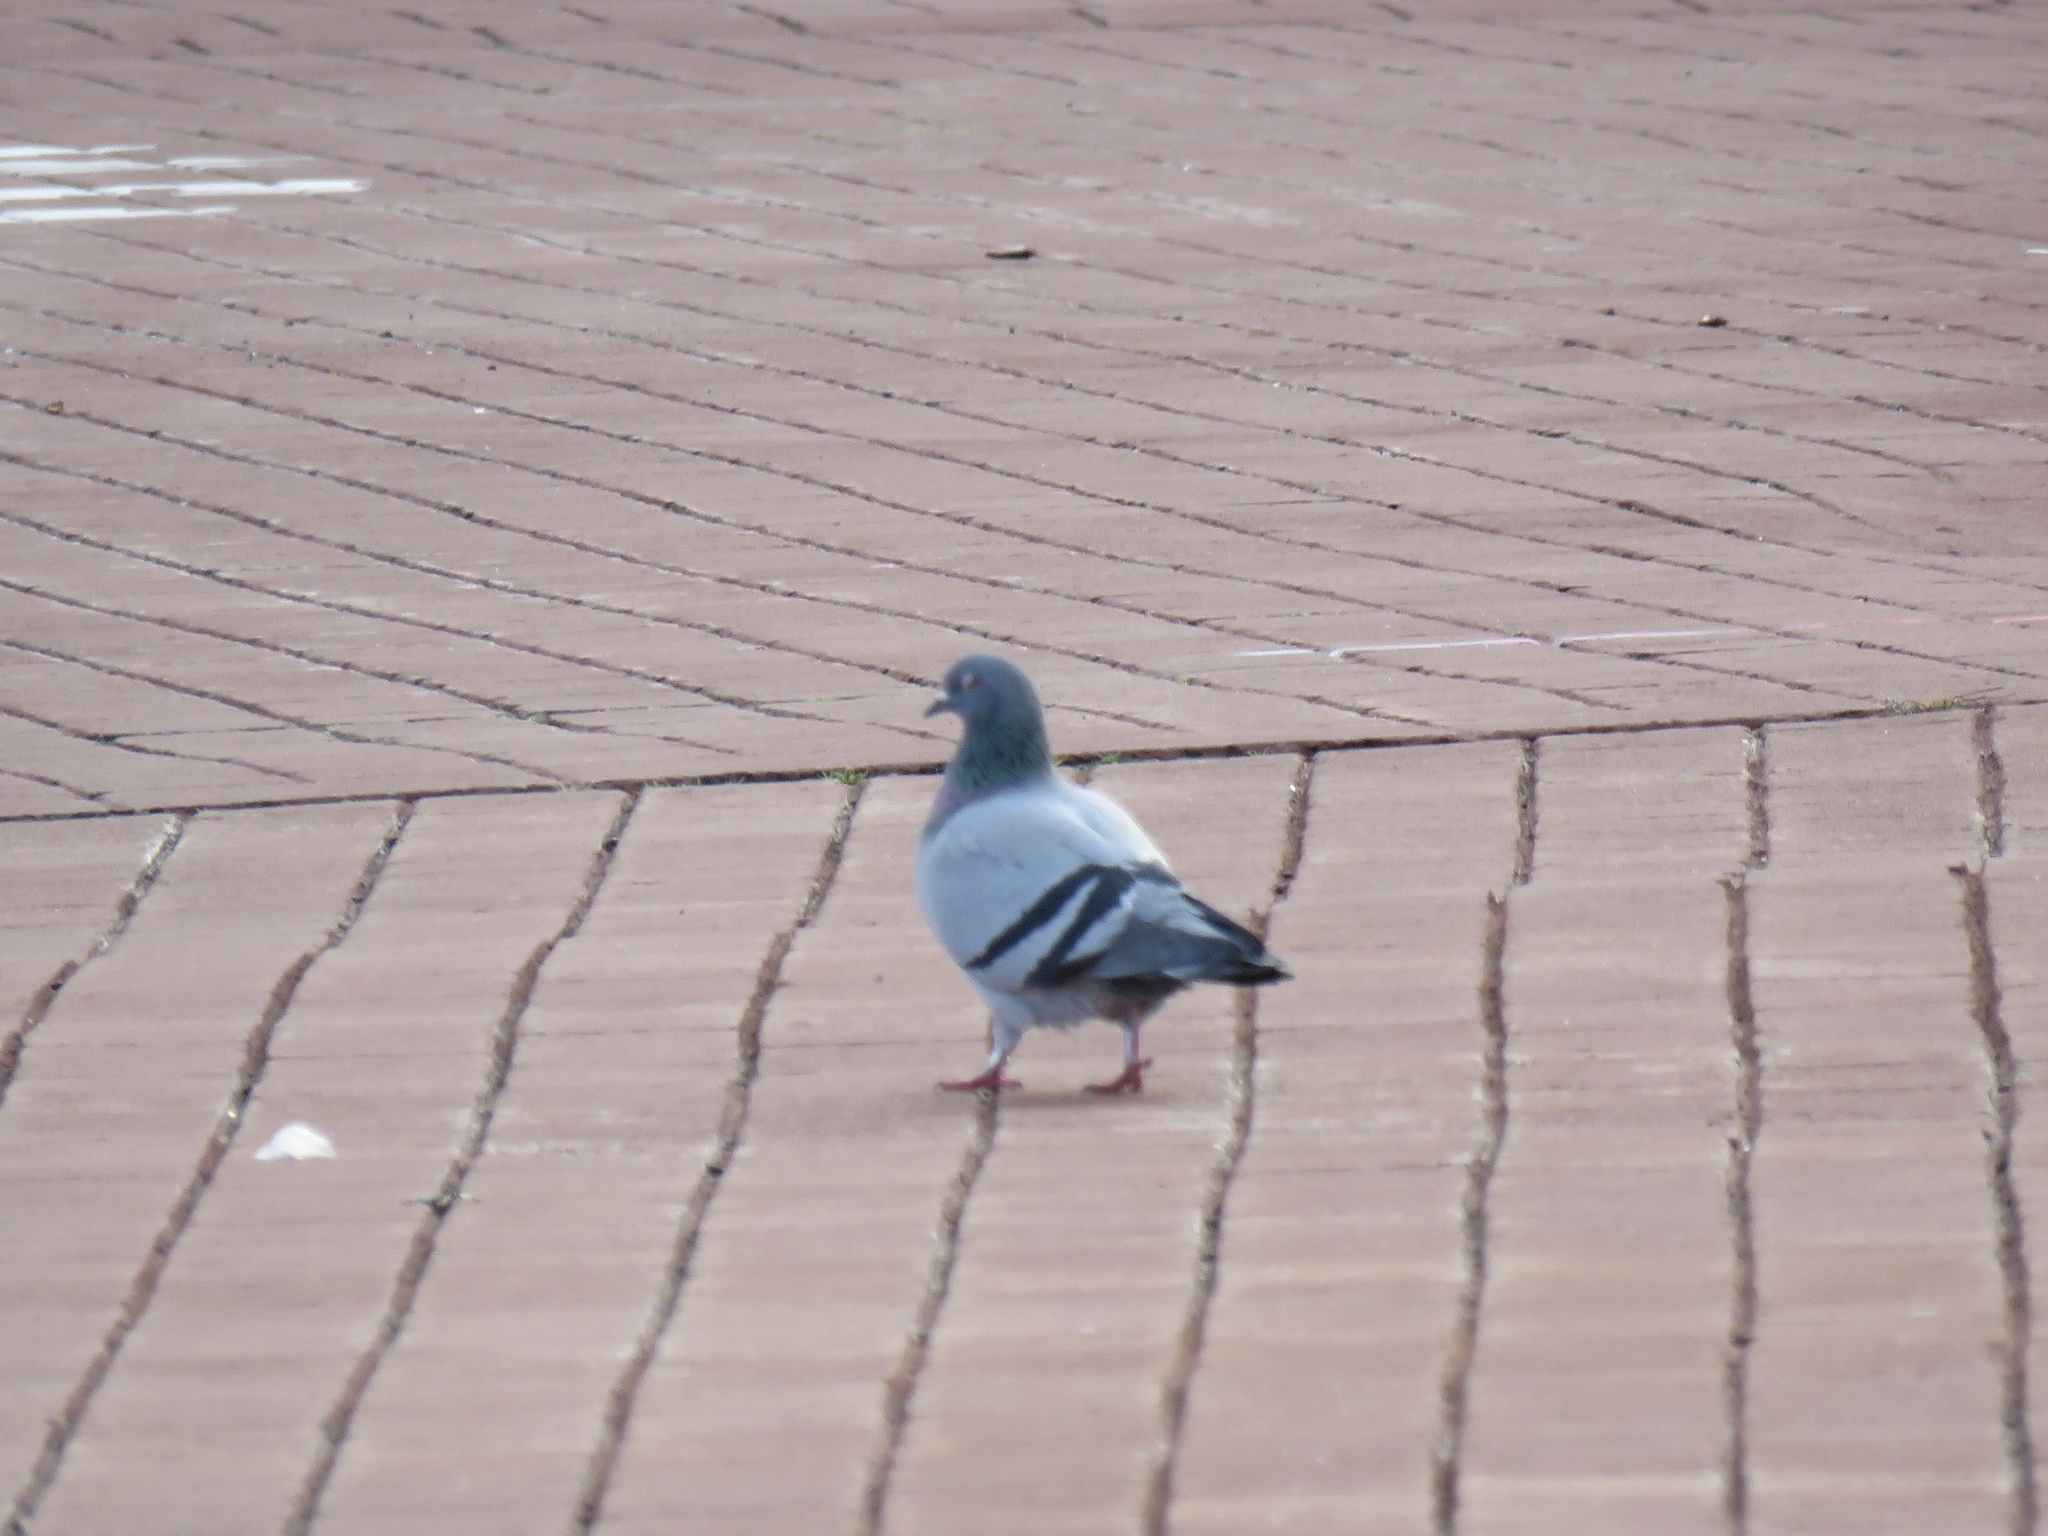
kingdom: Animalia
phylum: Chordata
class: Aves
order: Columbiformes
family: Columbidae
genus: Columba
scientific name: Columba livia
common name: Rock pigeon
